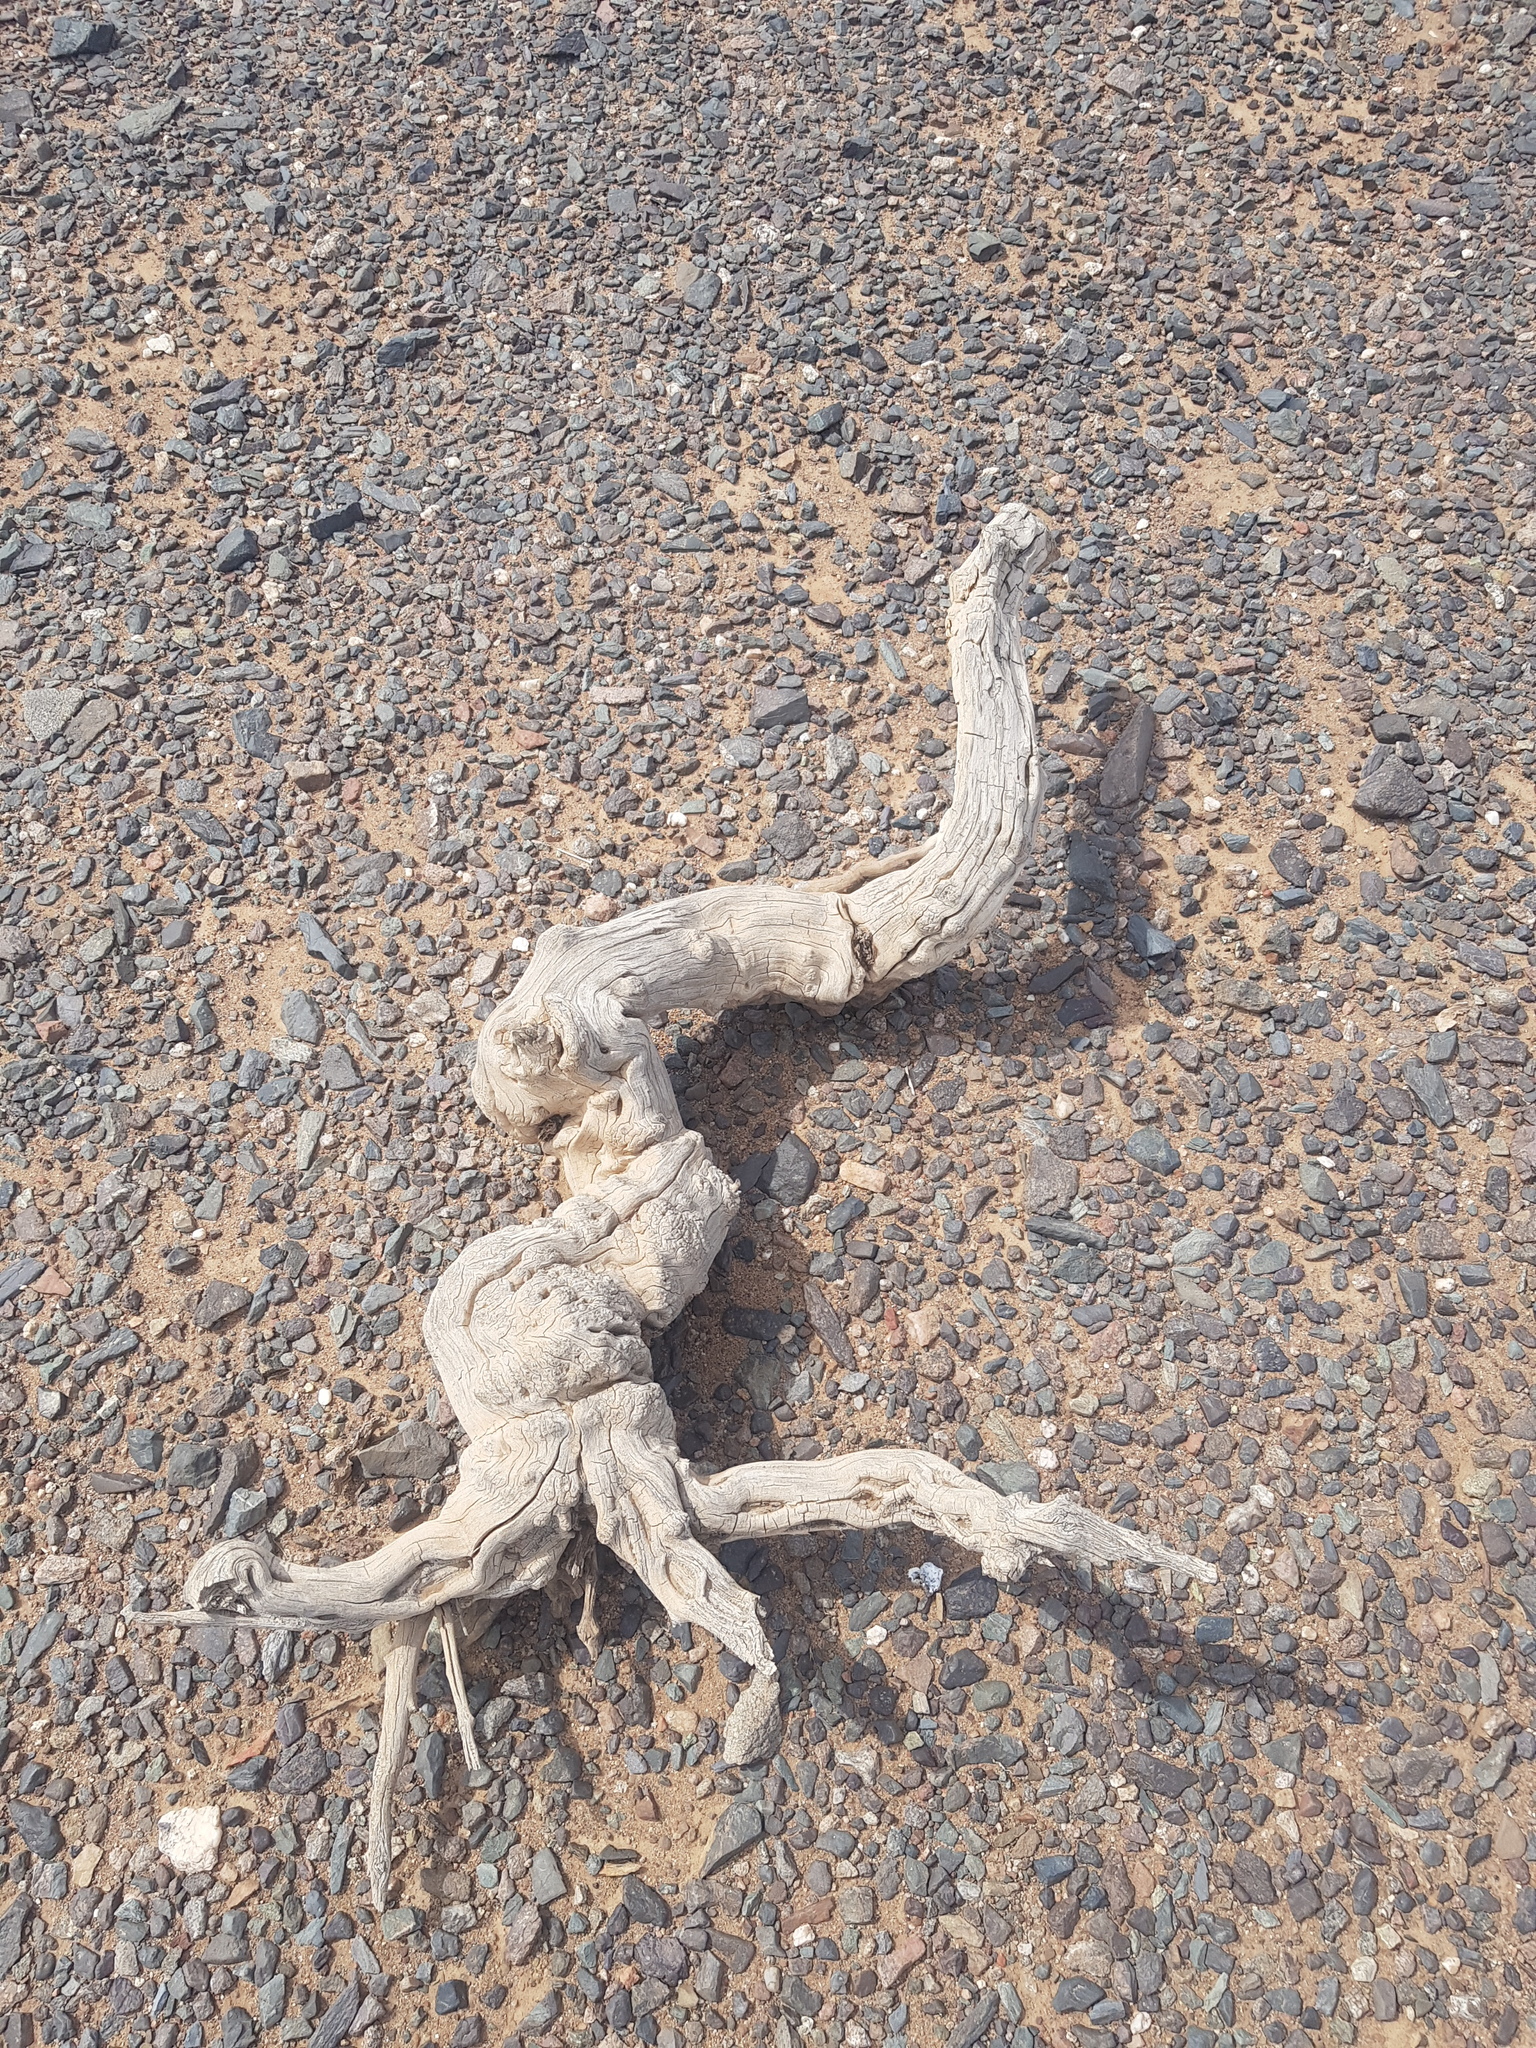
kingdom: Plantae
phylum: Tracheophyta
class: Magnoliopsida
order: Caryophyllales
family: Amaranthaceae
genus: Haloxylon
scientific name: Haloxylon ammodendron
